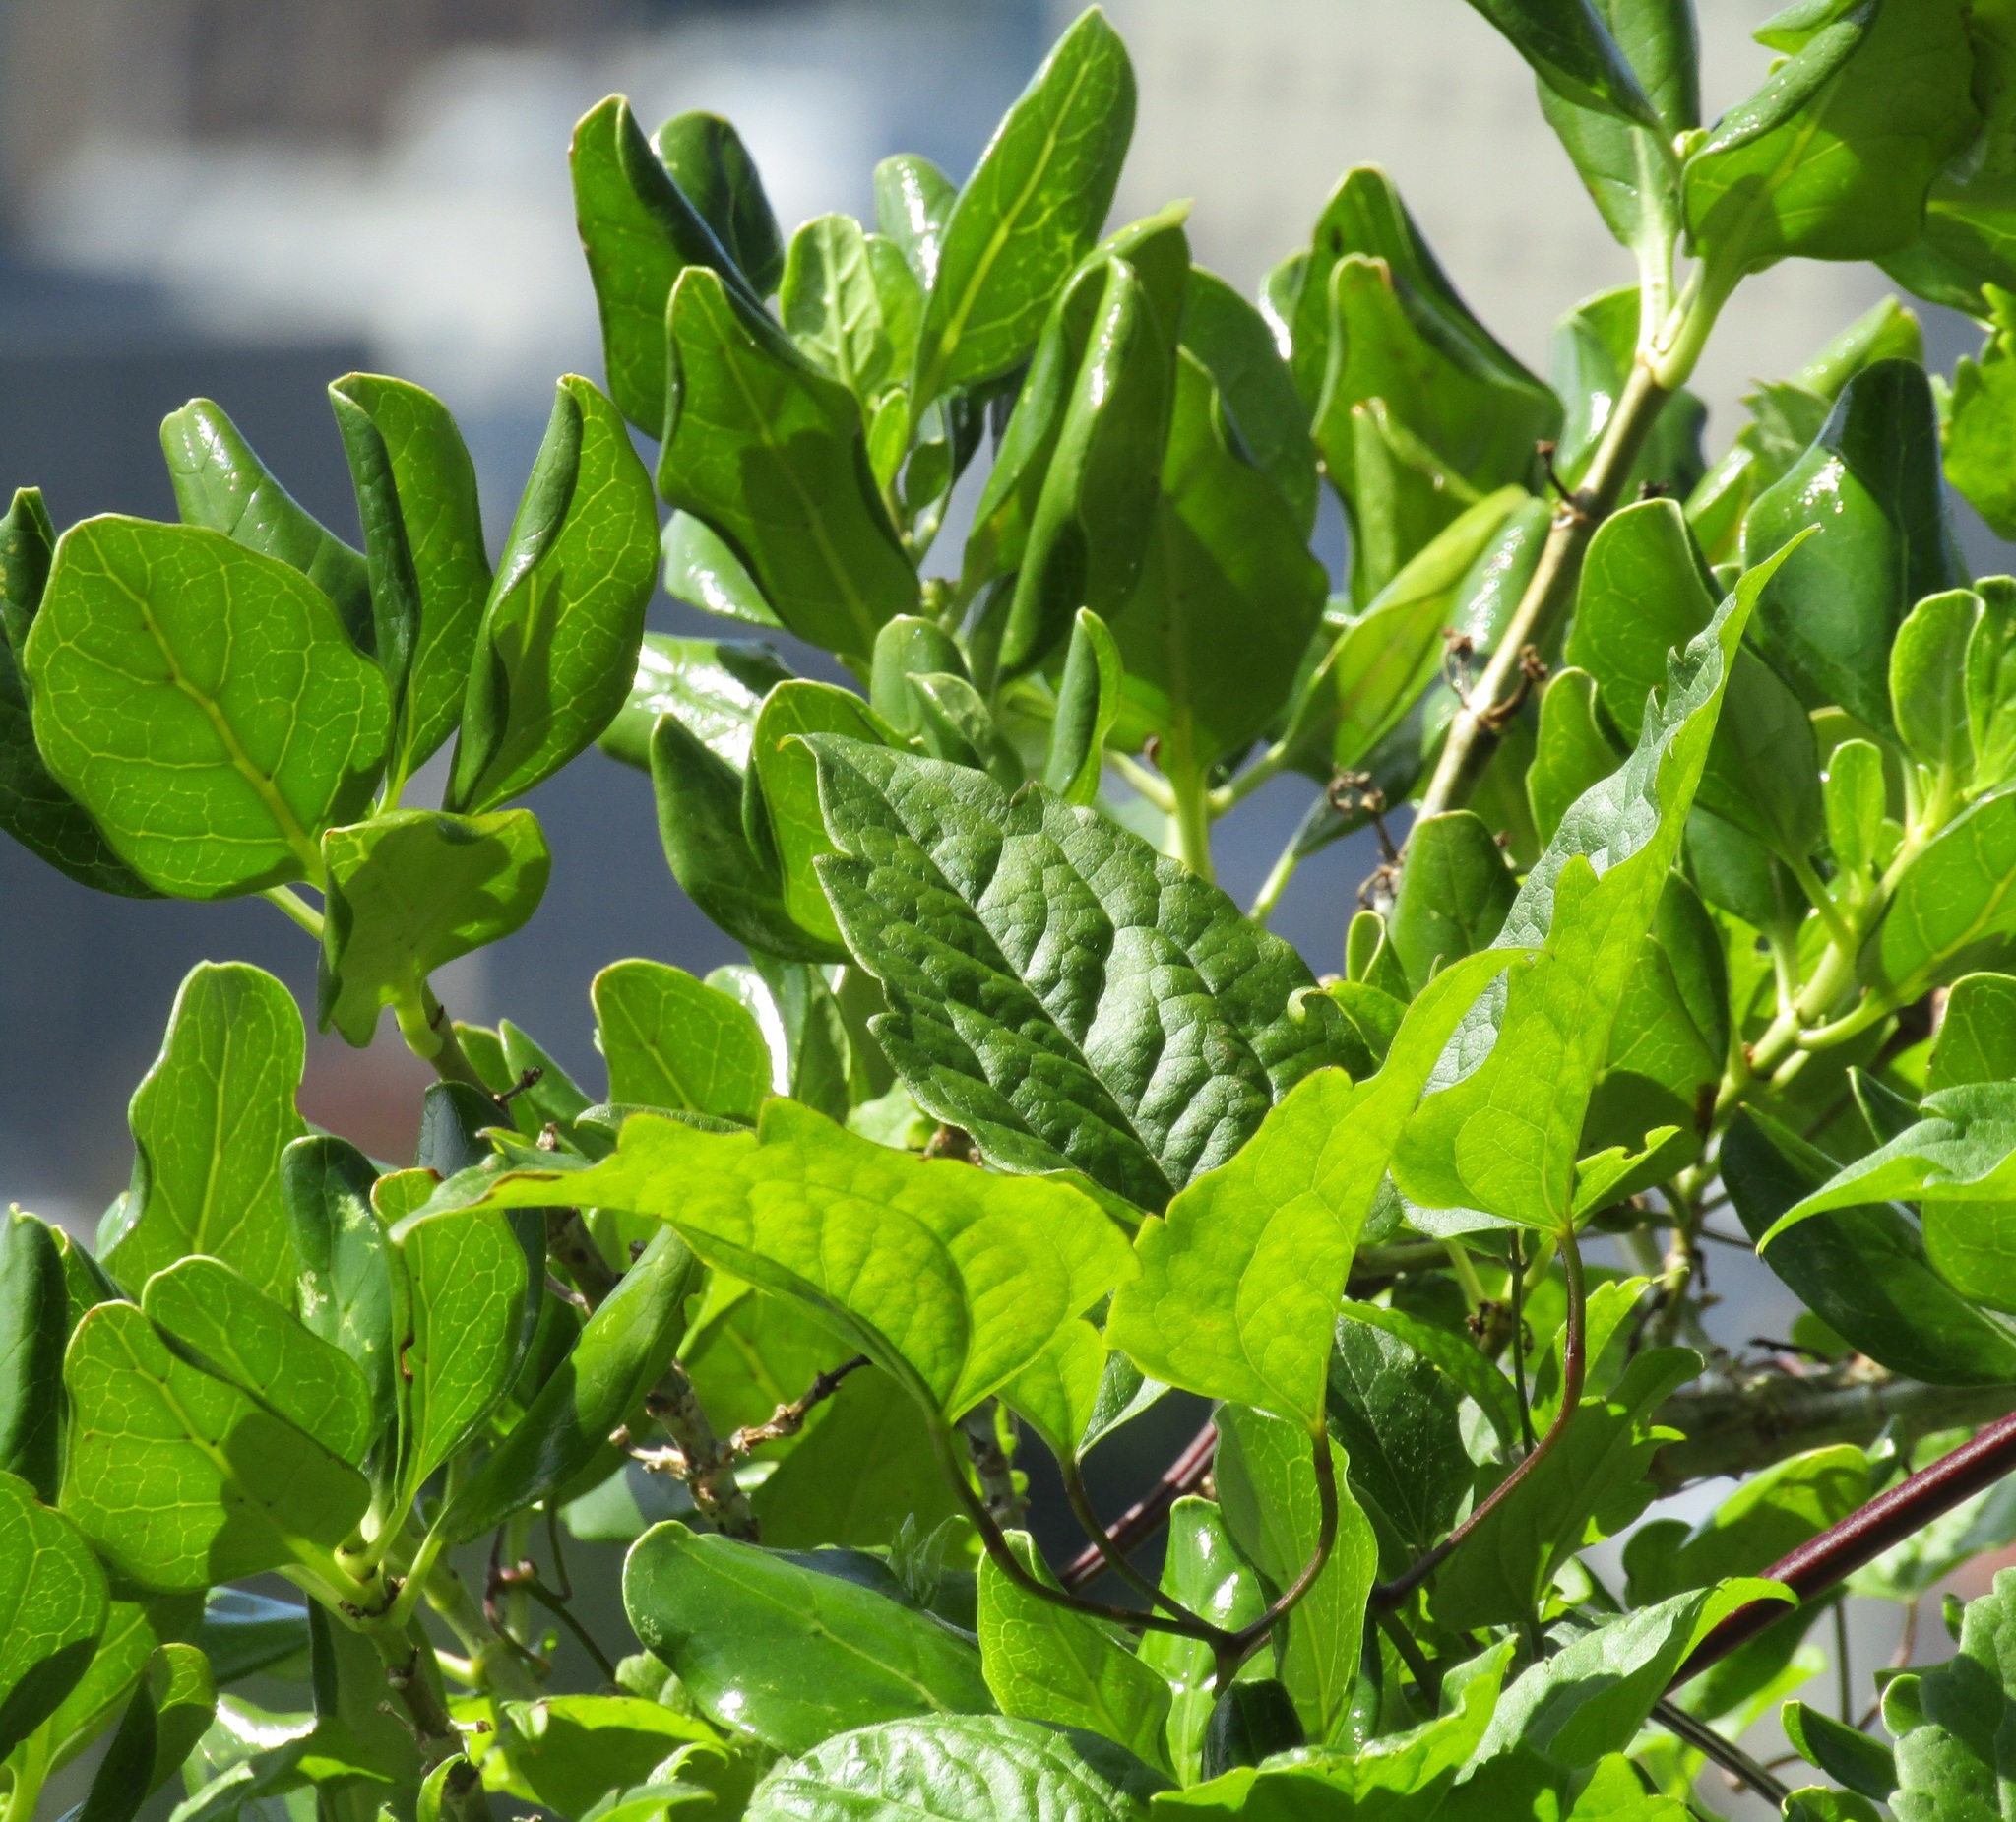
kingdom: Plantae
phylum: Tracheophyta
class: Magnoliopsida
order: Ranunculales
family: Ranunculaceae
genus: Clematis
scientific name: Clematis vitalba
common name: Evergreen clematis
